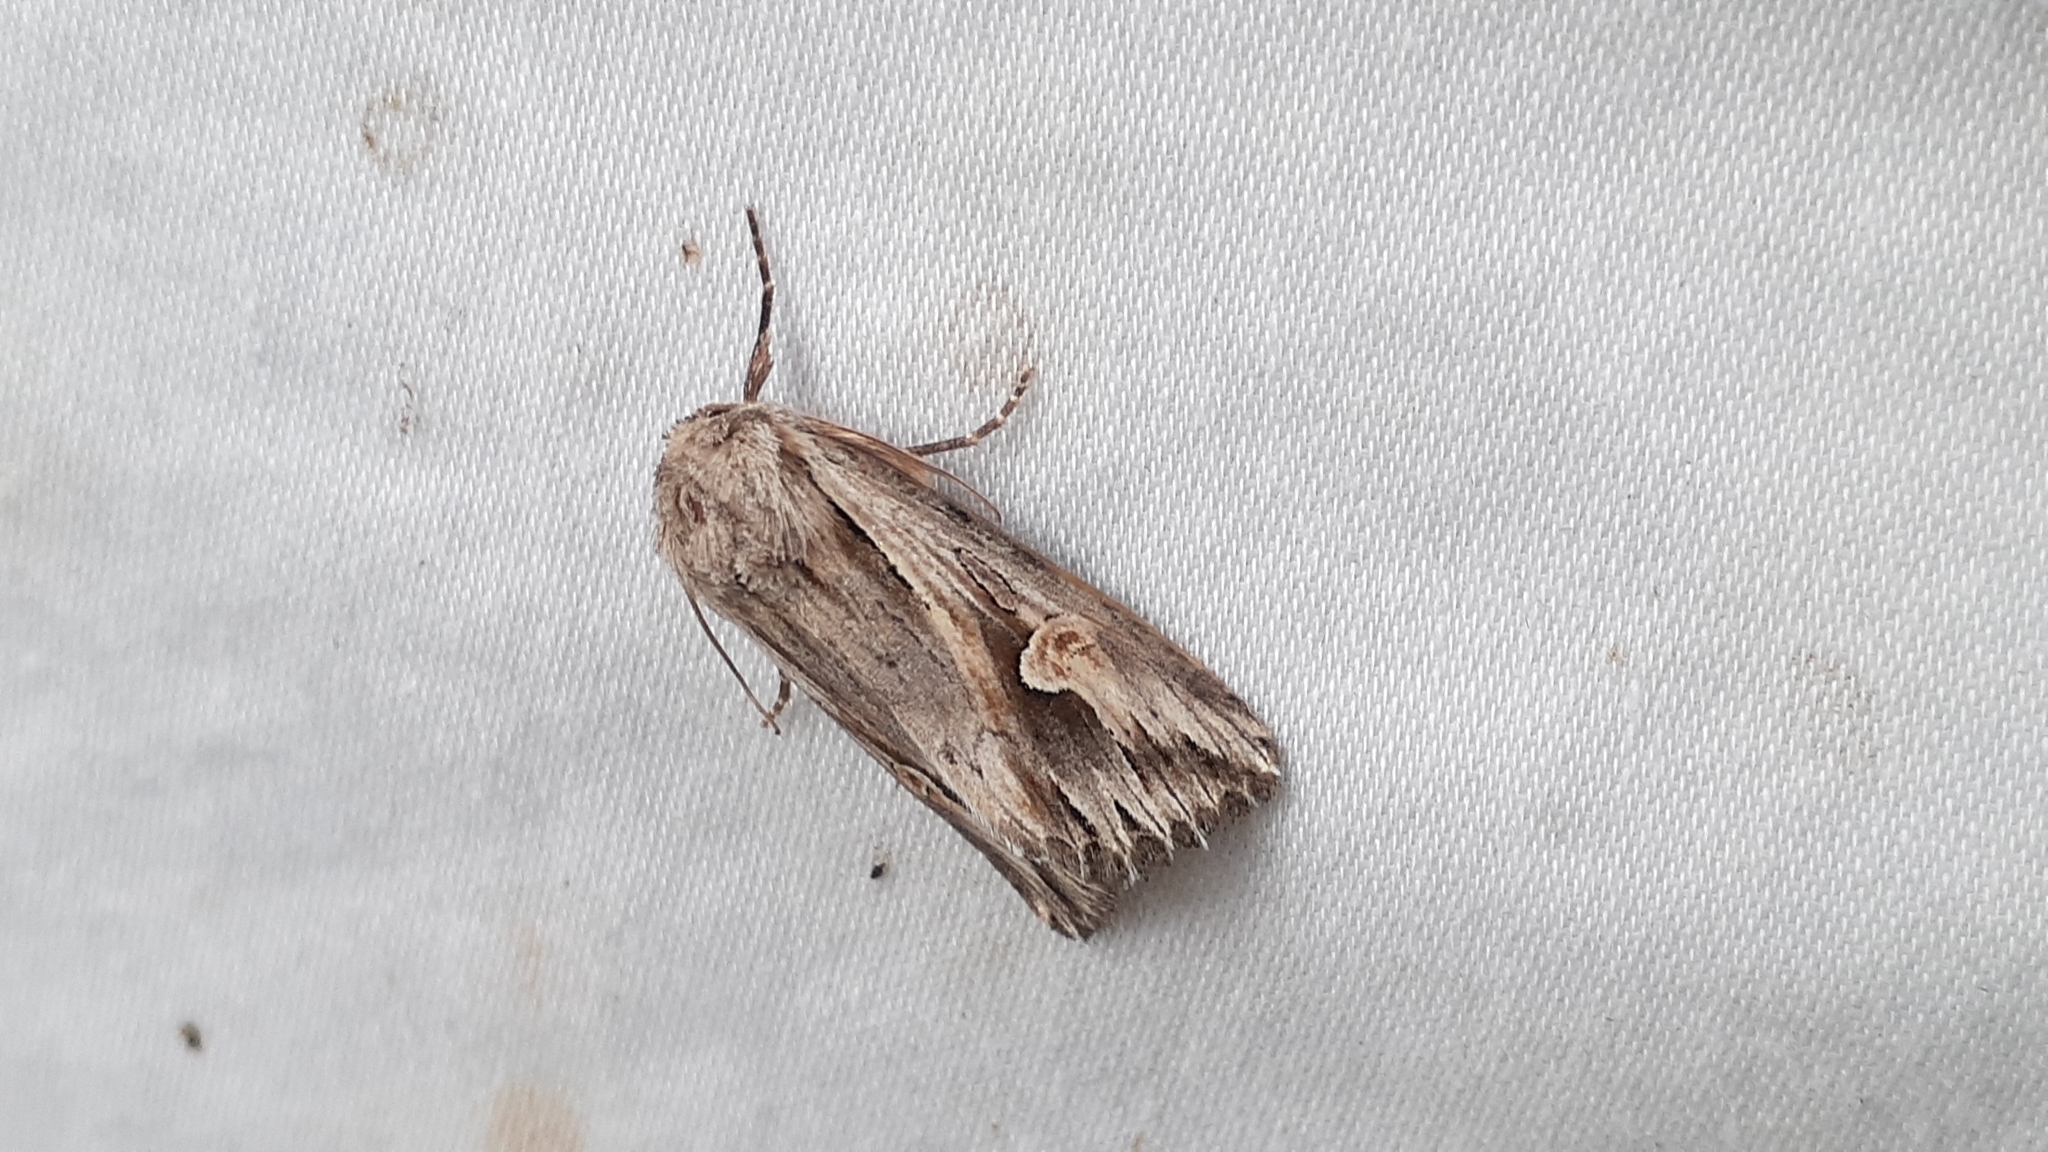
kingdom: Animalia
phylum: Arthropoda
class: Insecta
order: Lepidoptera
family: Noctuidae
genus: Nedra
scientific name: Nedra ramosula
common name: Gray half-spot
